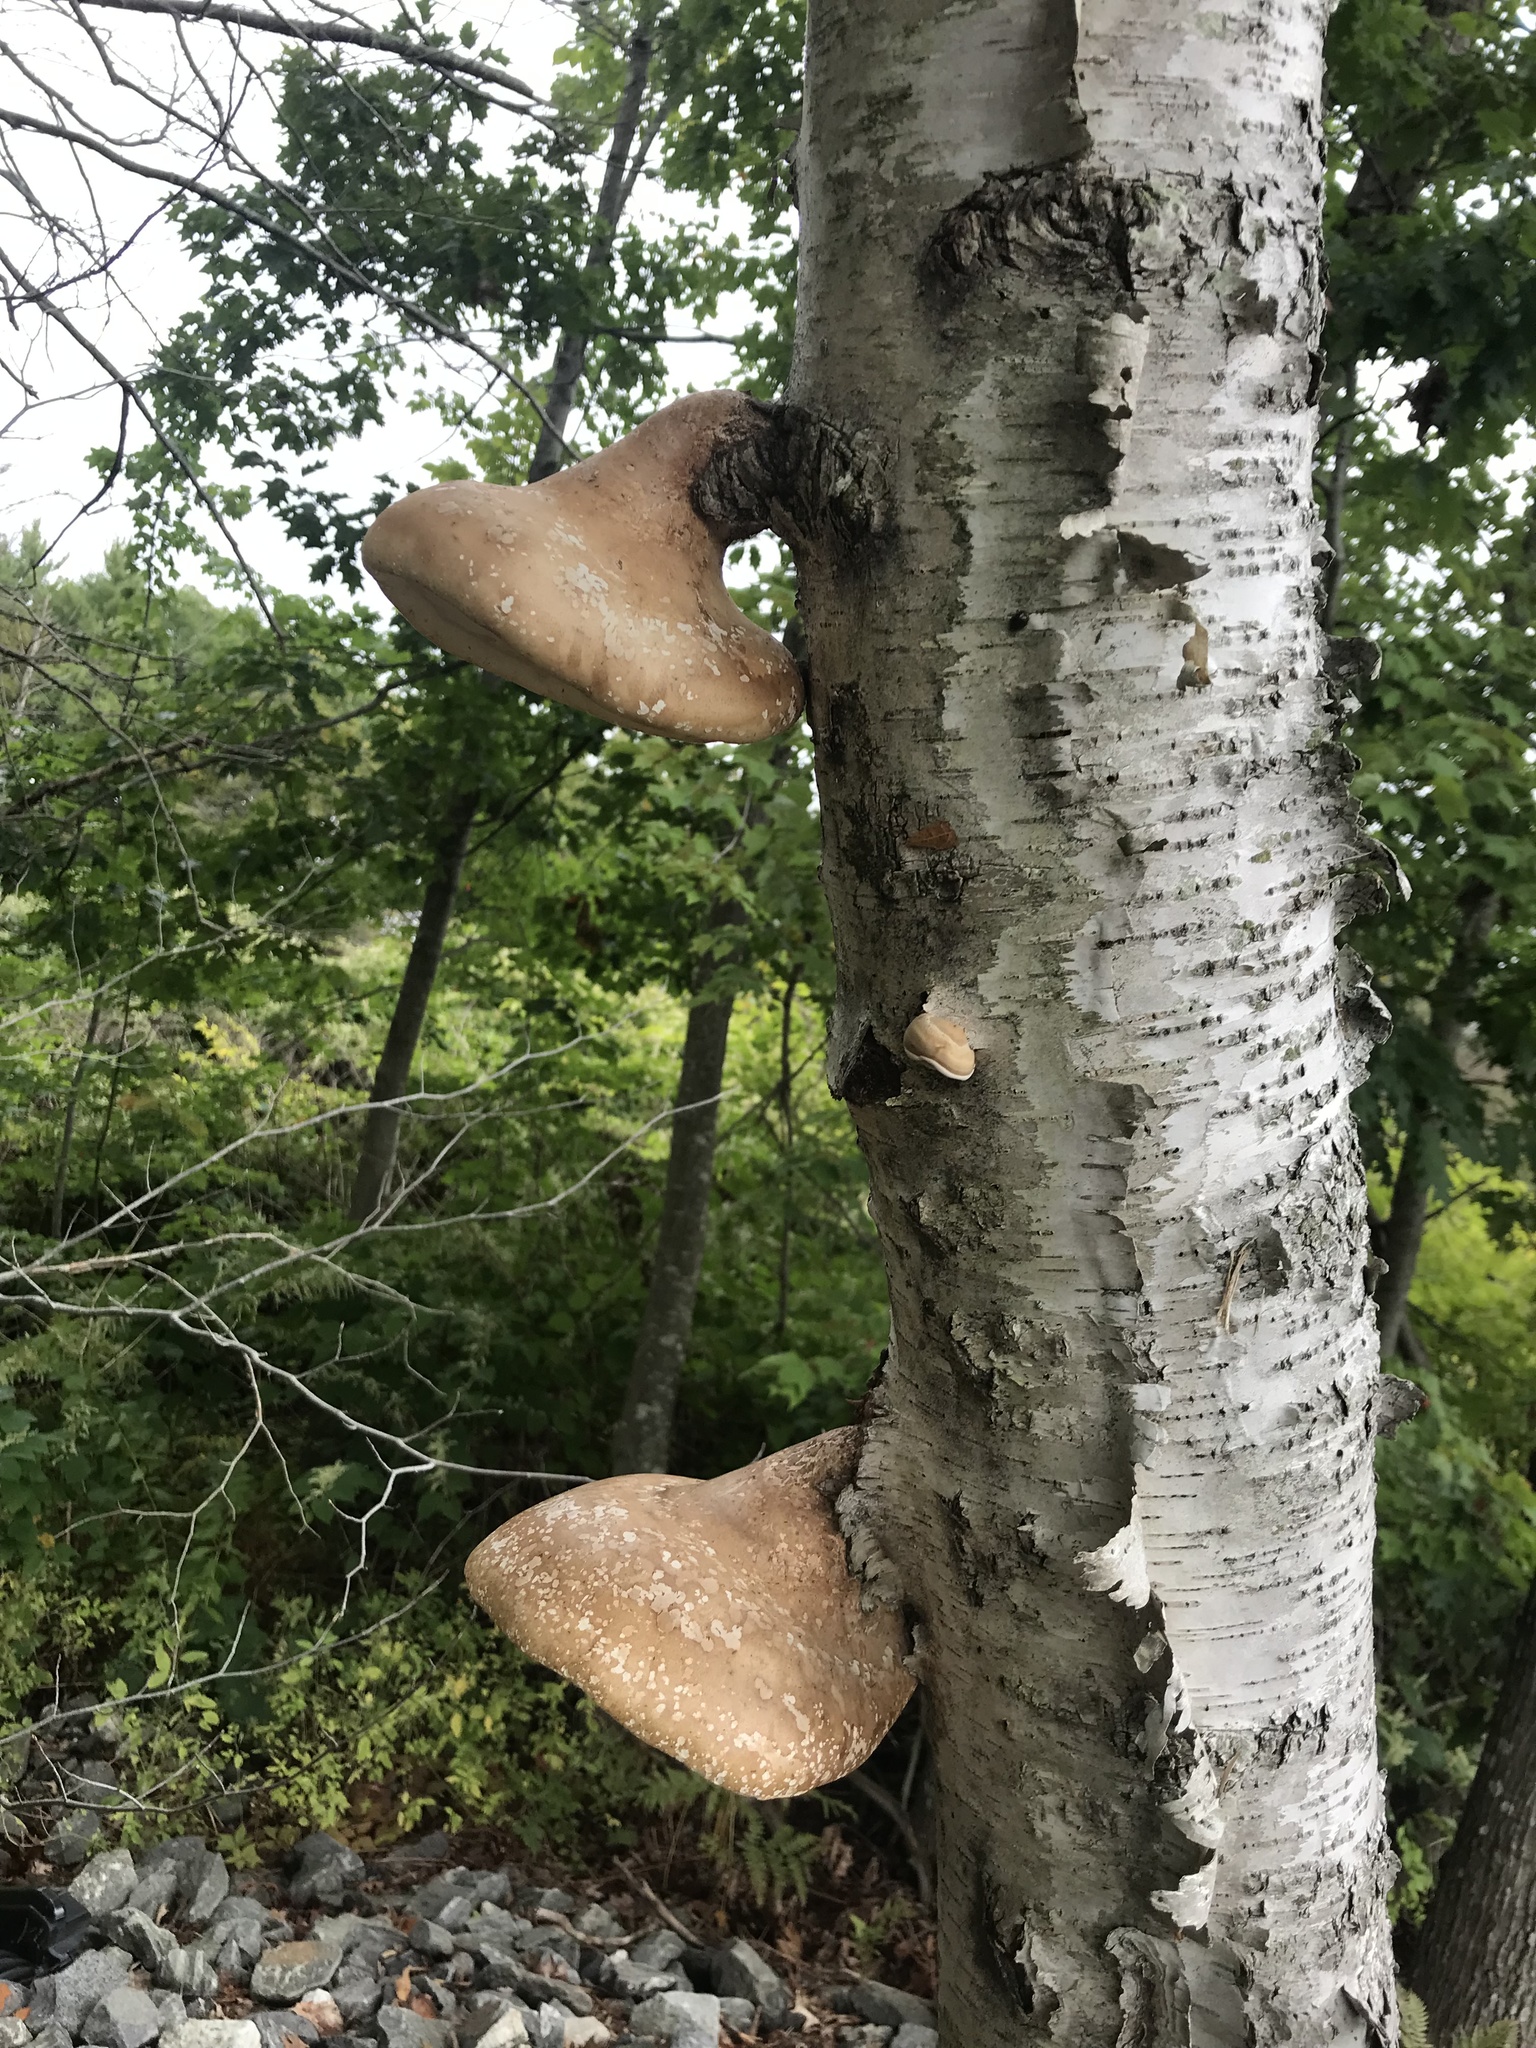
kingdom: Fungi
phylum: Basidiomycota
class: Agaricomycetes
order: Polyporales
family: Fomitopsidaceae
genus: Fomitopsis
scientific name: Fomitopsis betulina
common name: Birch polypore
